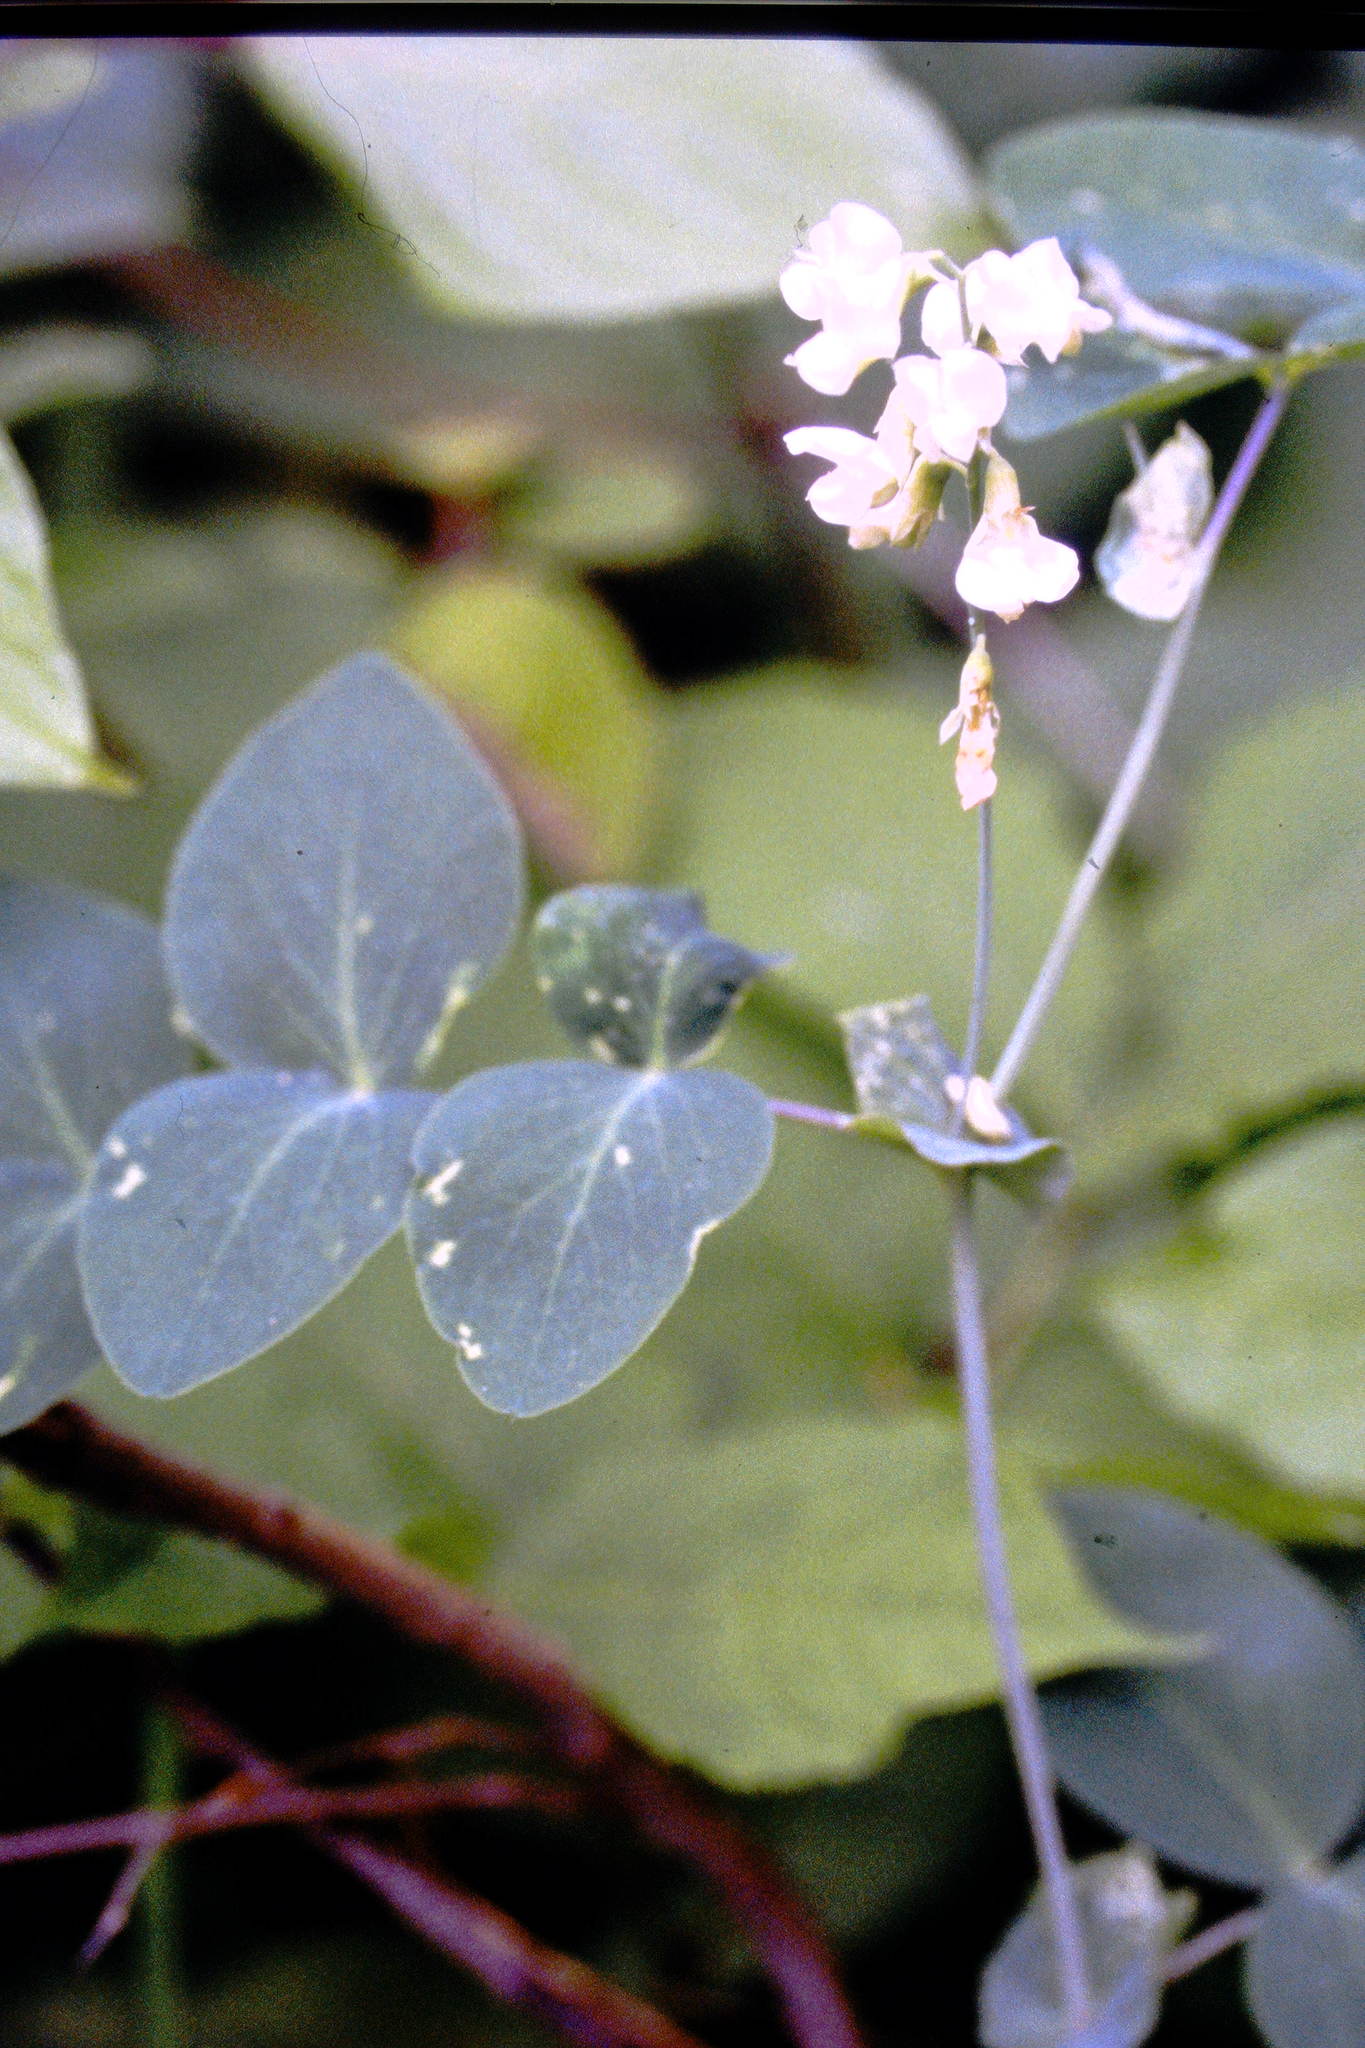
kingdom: Plantae
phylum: Tracheophyta
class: Magnoliopsida
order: Fabales
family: Fabaceae
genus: Lathyrus
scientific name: Lathyrus ochroleucus
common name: Pale vetchling
